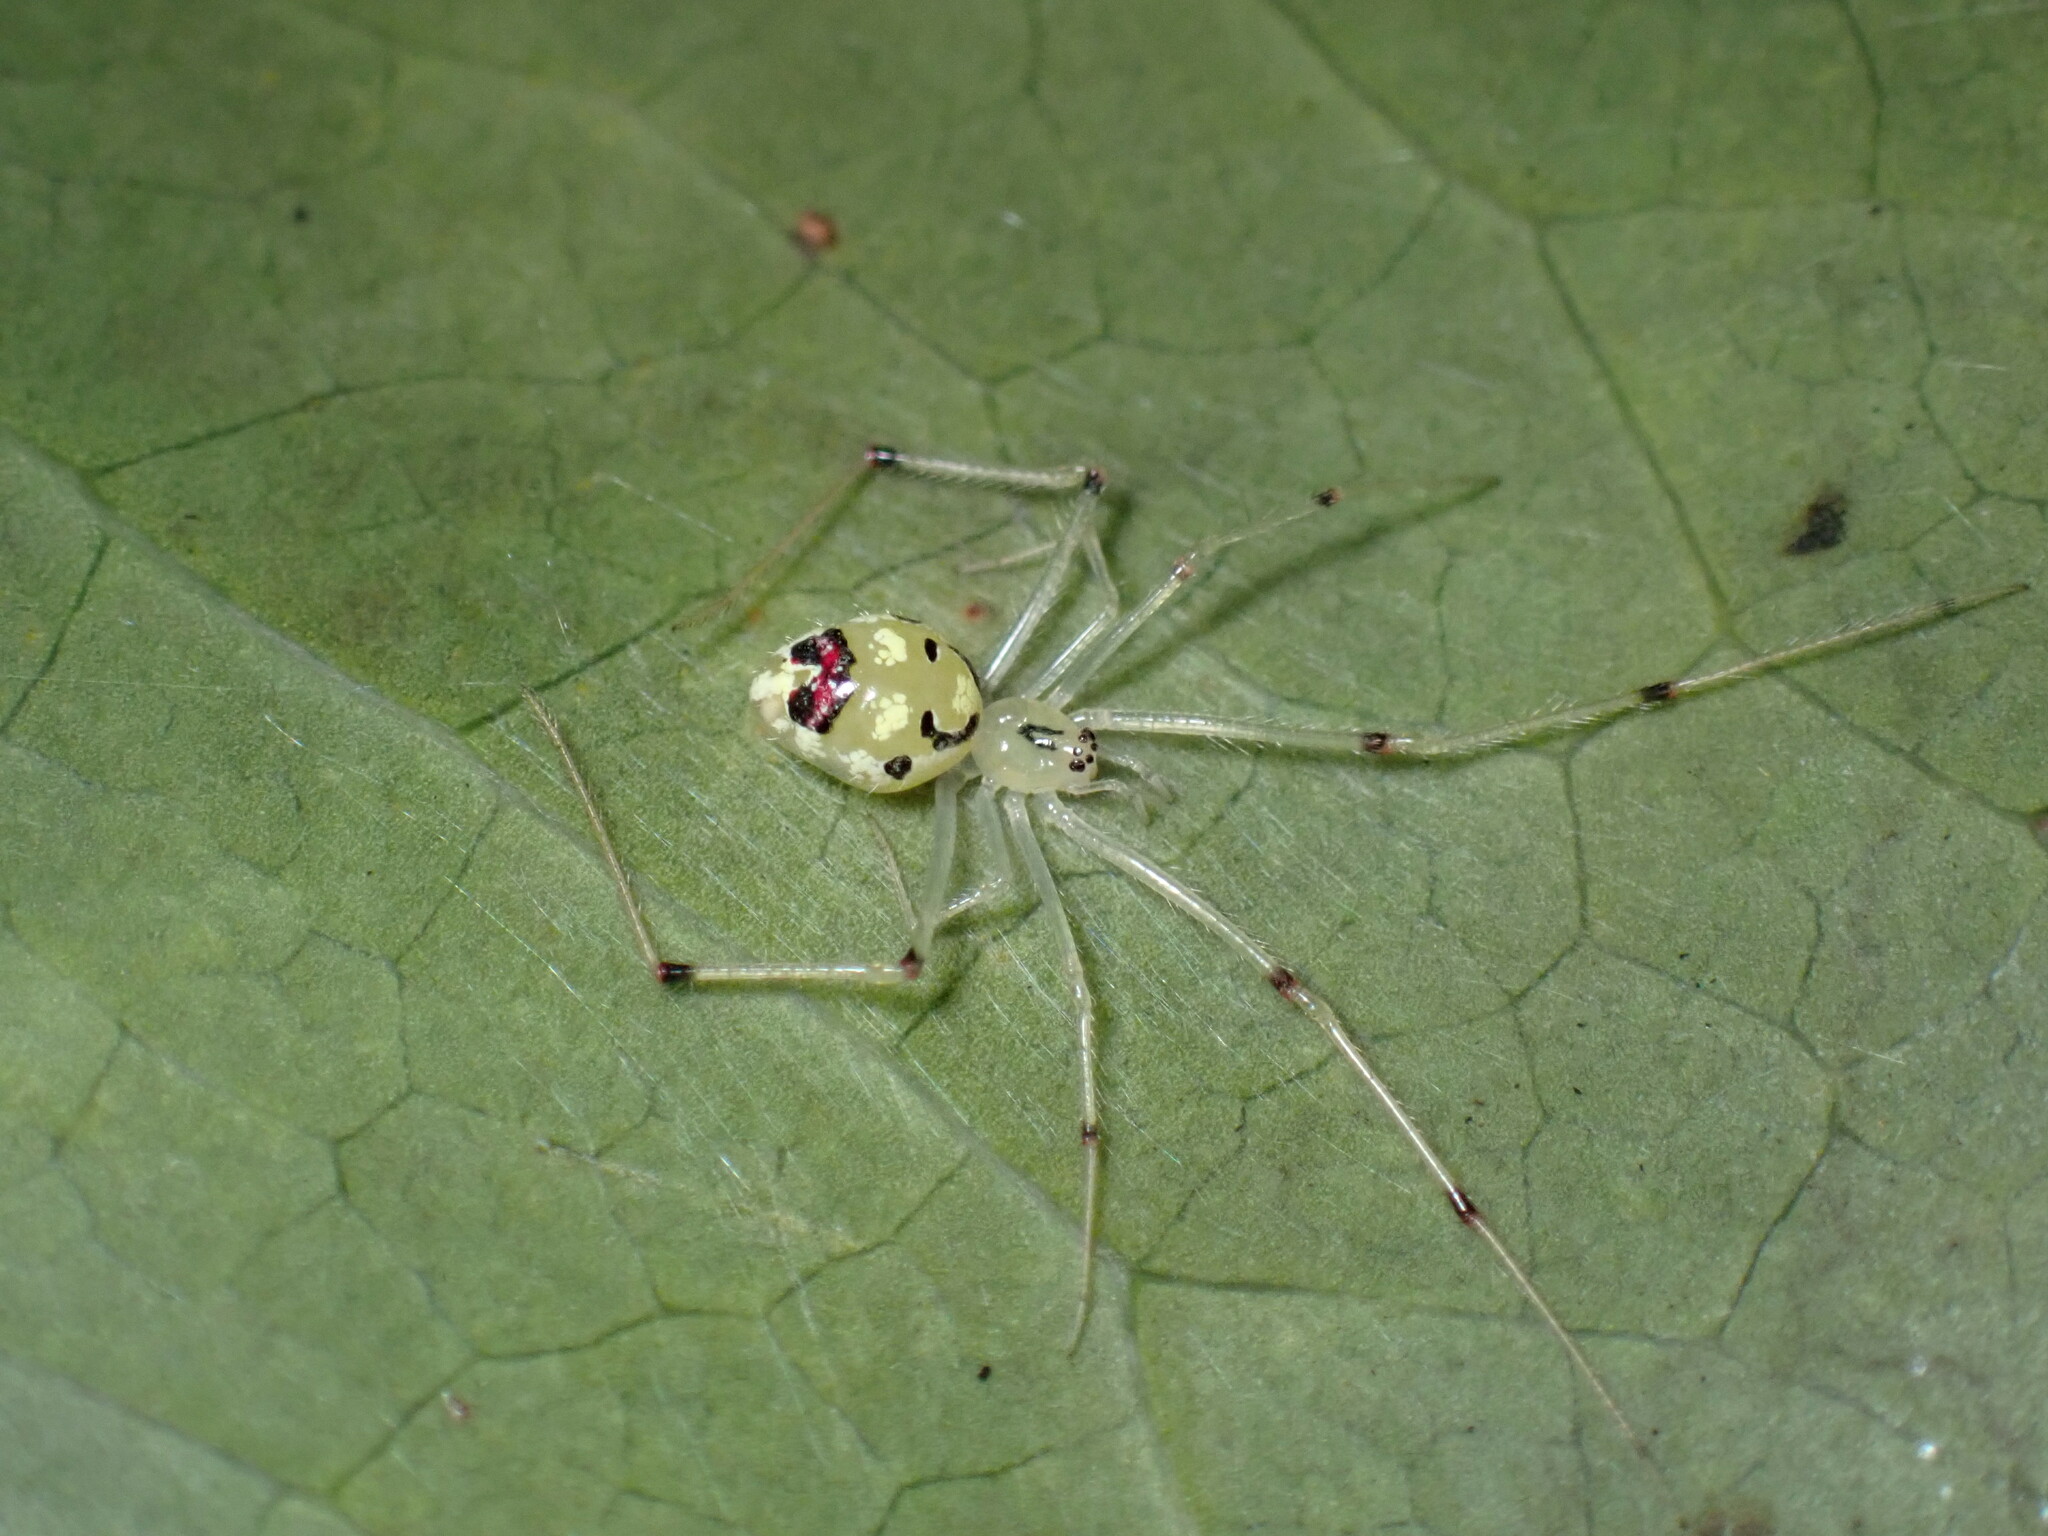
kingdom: Animalia
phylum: Arthropoda
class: Arachnida
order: Araneae
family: Theridiidae
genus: Theridion
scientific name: Theridion grallator
